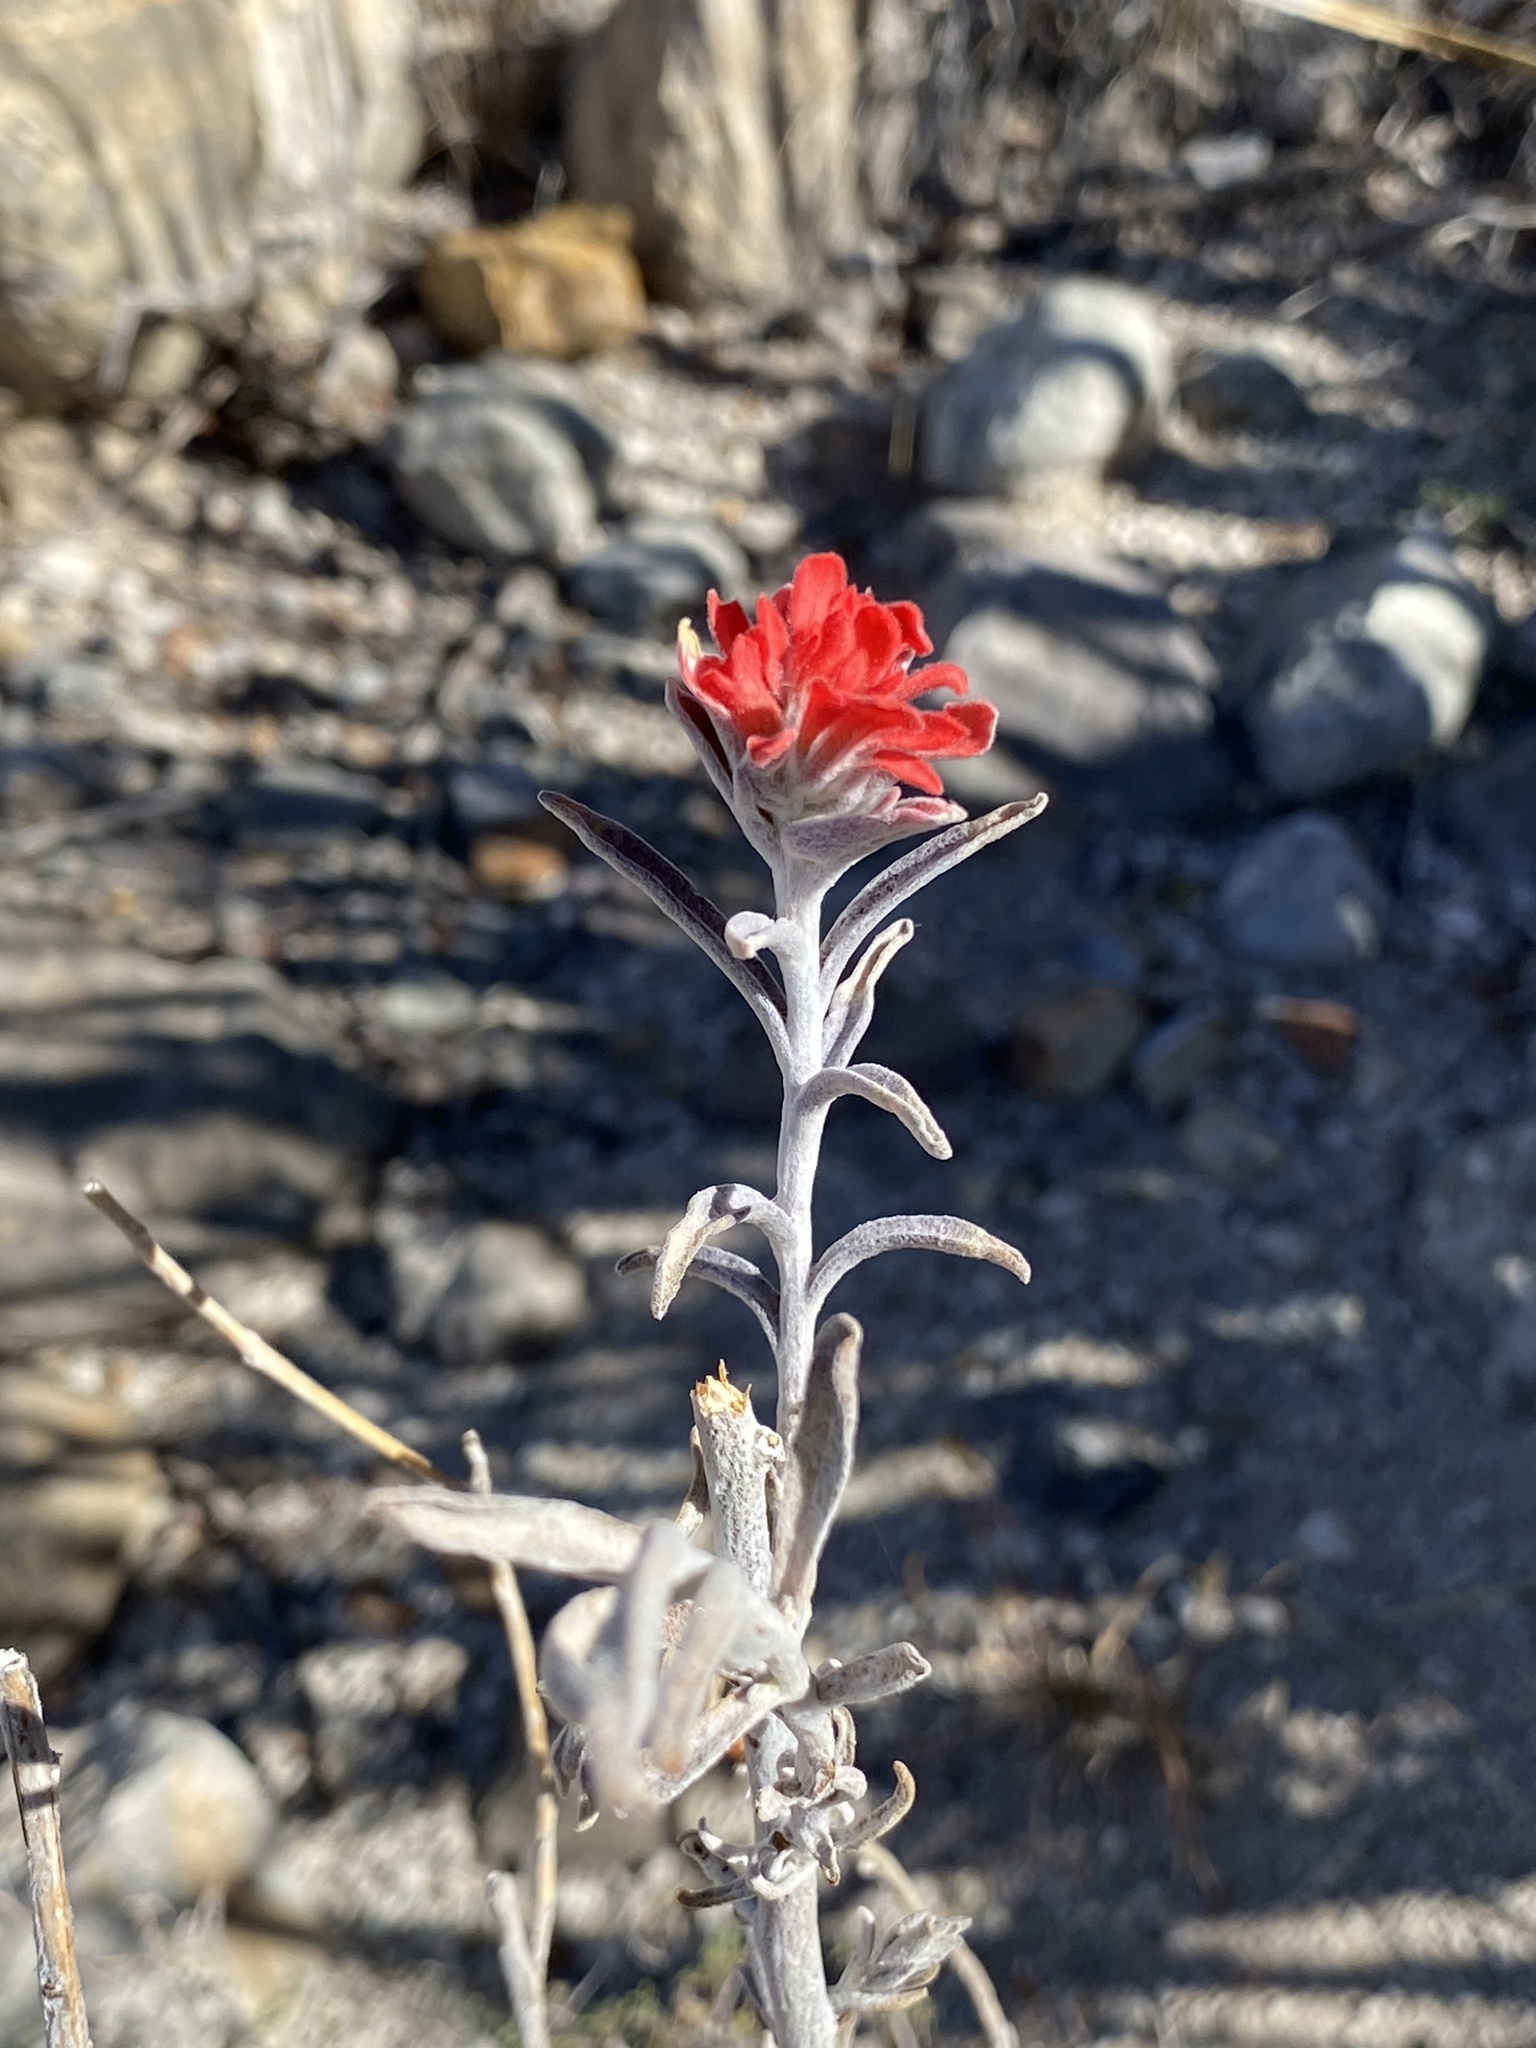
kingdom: Plantae
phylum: Tracheophyta
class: Magnoliopsida
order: Lamiales
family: Orobanchaceae
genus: Castilleja
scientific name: Castilleja lanata
